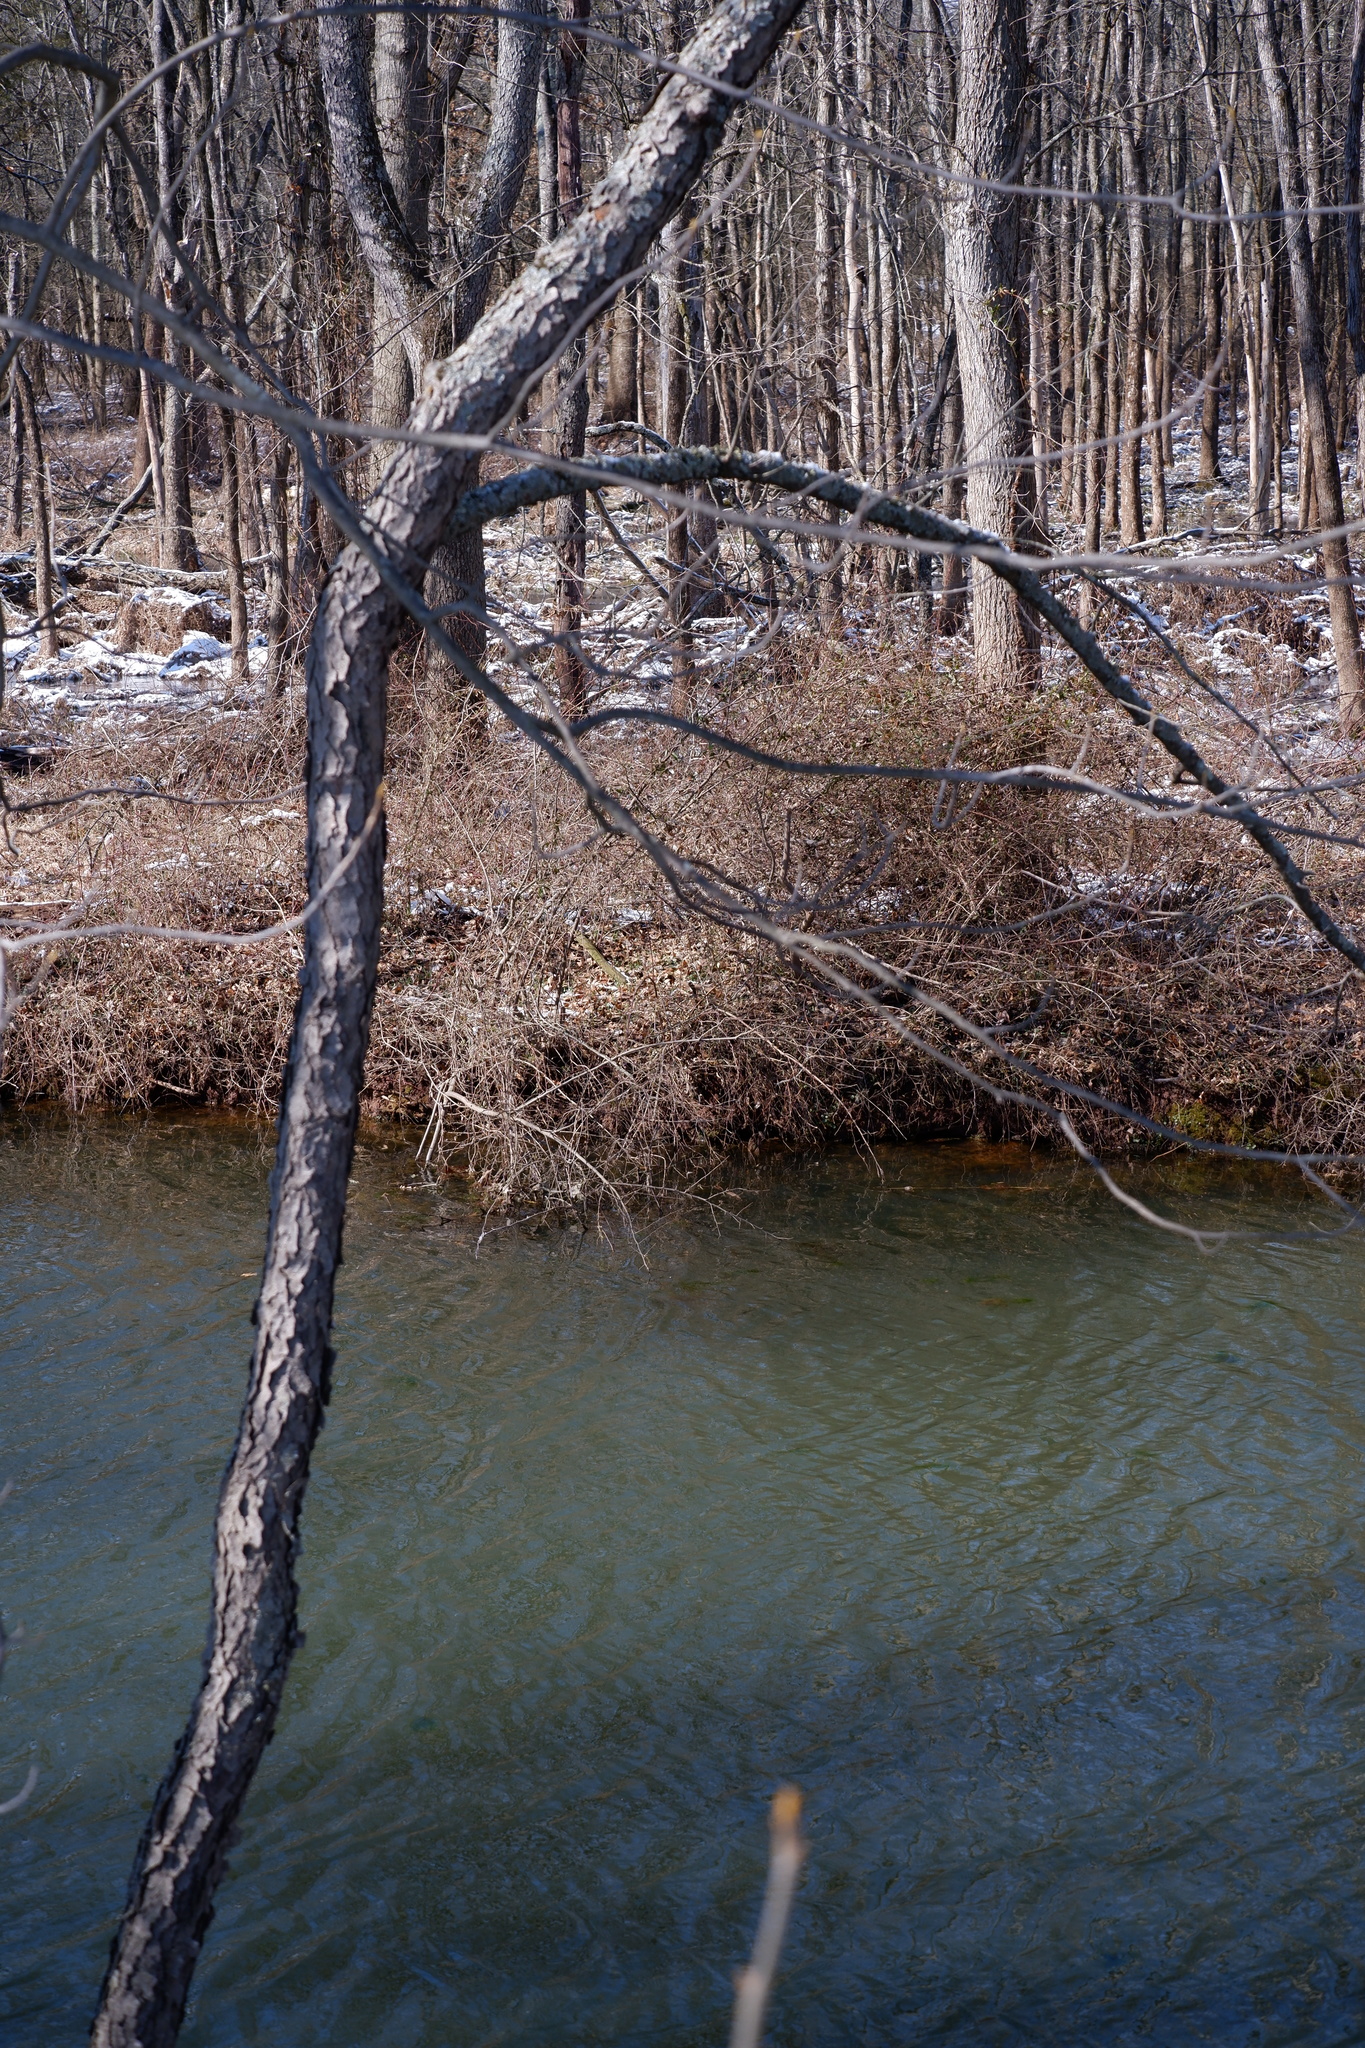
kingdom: Plantae
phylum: Tracheophyta
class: Magnoliopsida
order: Rosales
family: Rosaceae
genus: Prunus
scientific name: Prunus serotina
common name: Black cherry
